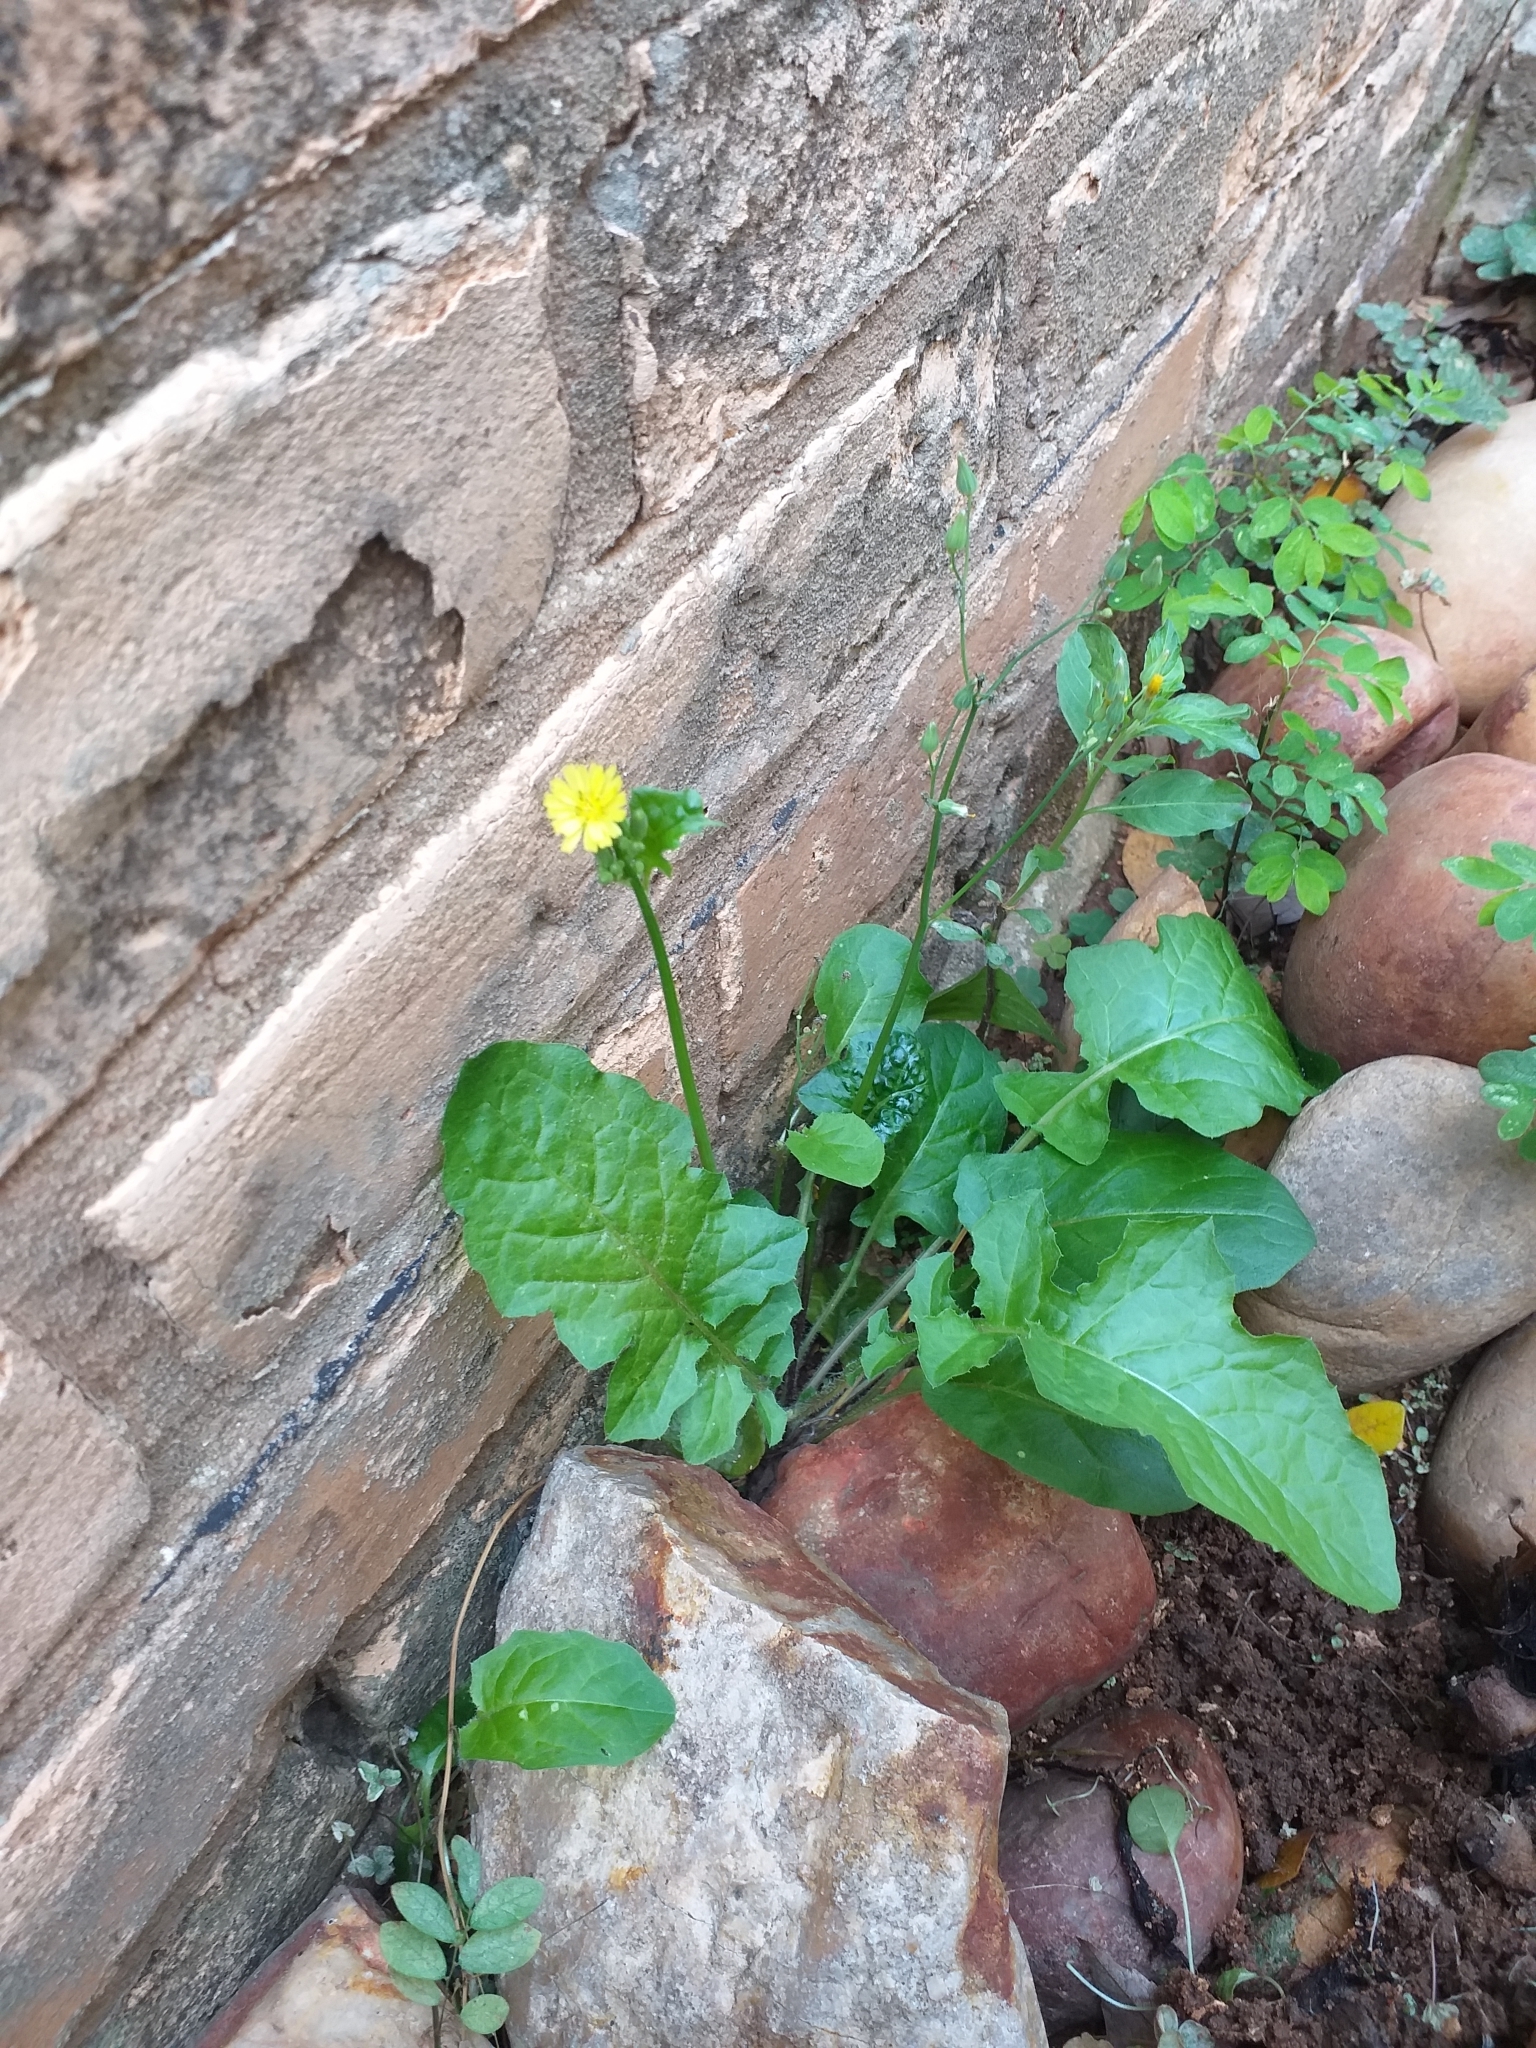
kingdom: Plantae
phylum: Tracheophyta
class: Magnoliopsida
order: Asterales
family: Asteraceae
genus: Youngia
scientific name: Youngia japonica
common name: Oriental false hawksbeard
